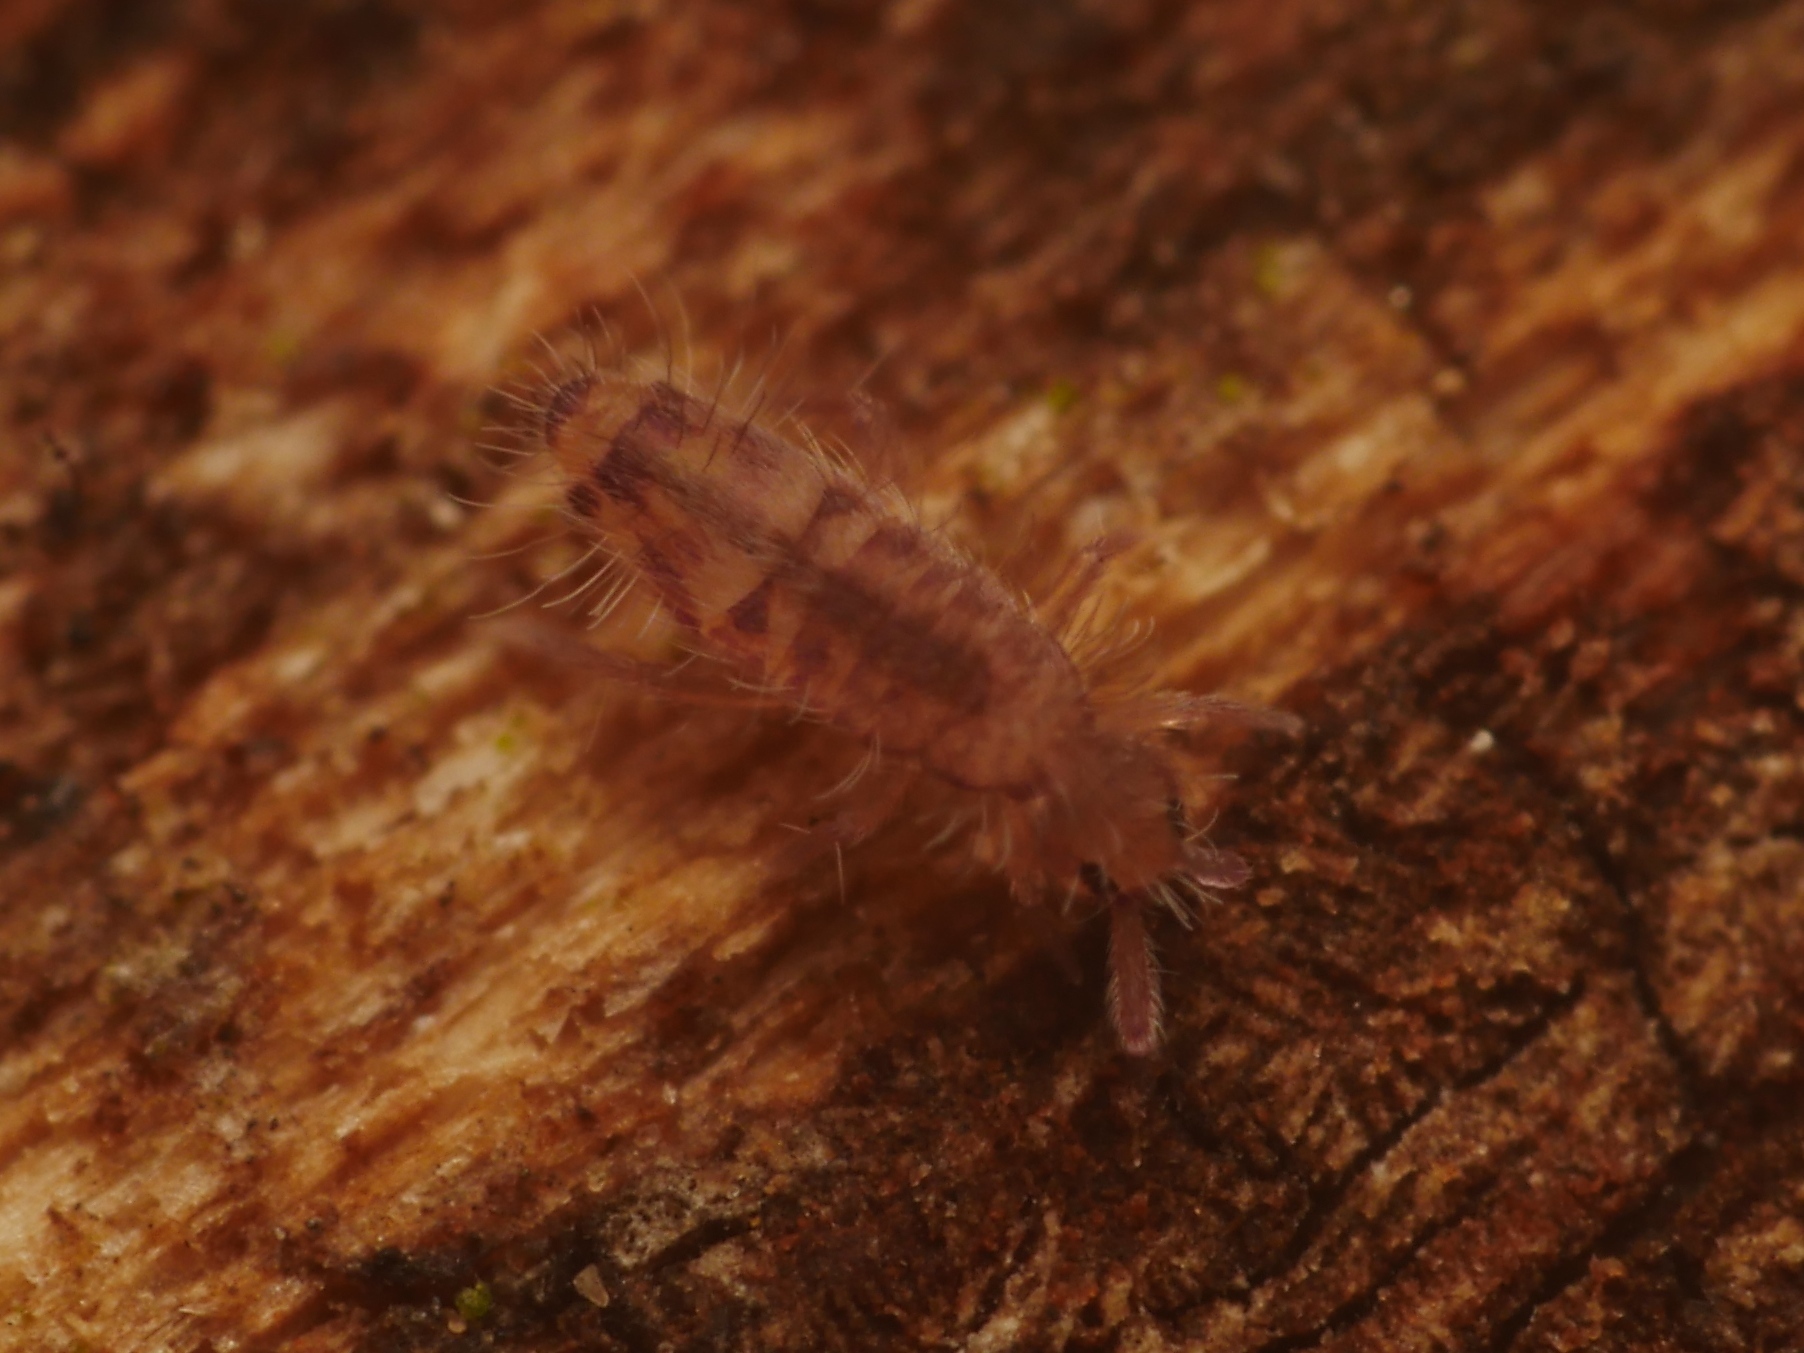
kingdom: Animalia
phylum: Arthropoda
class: Collembola
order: Entomobryomorpha
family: Entomobryidae
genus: Entomobrya
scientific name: Entomobrya multifasciata
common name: Springtail
